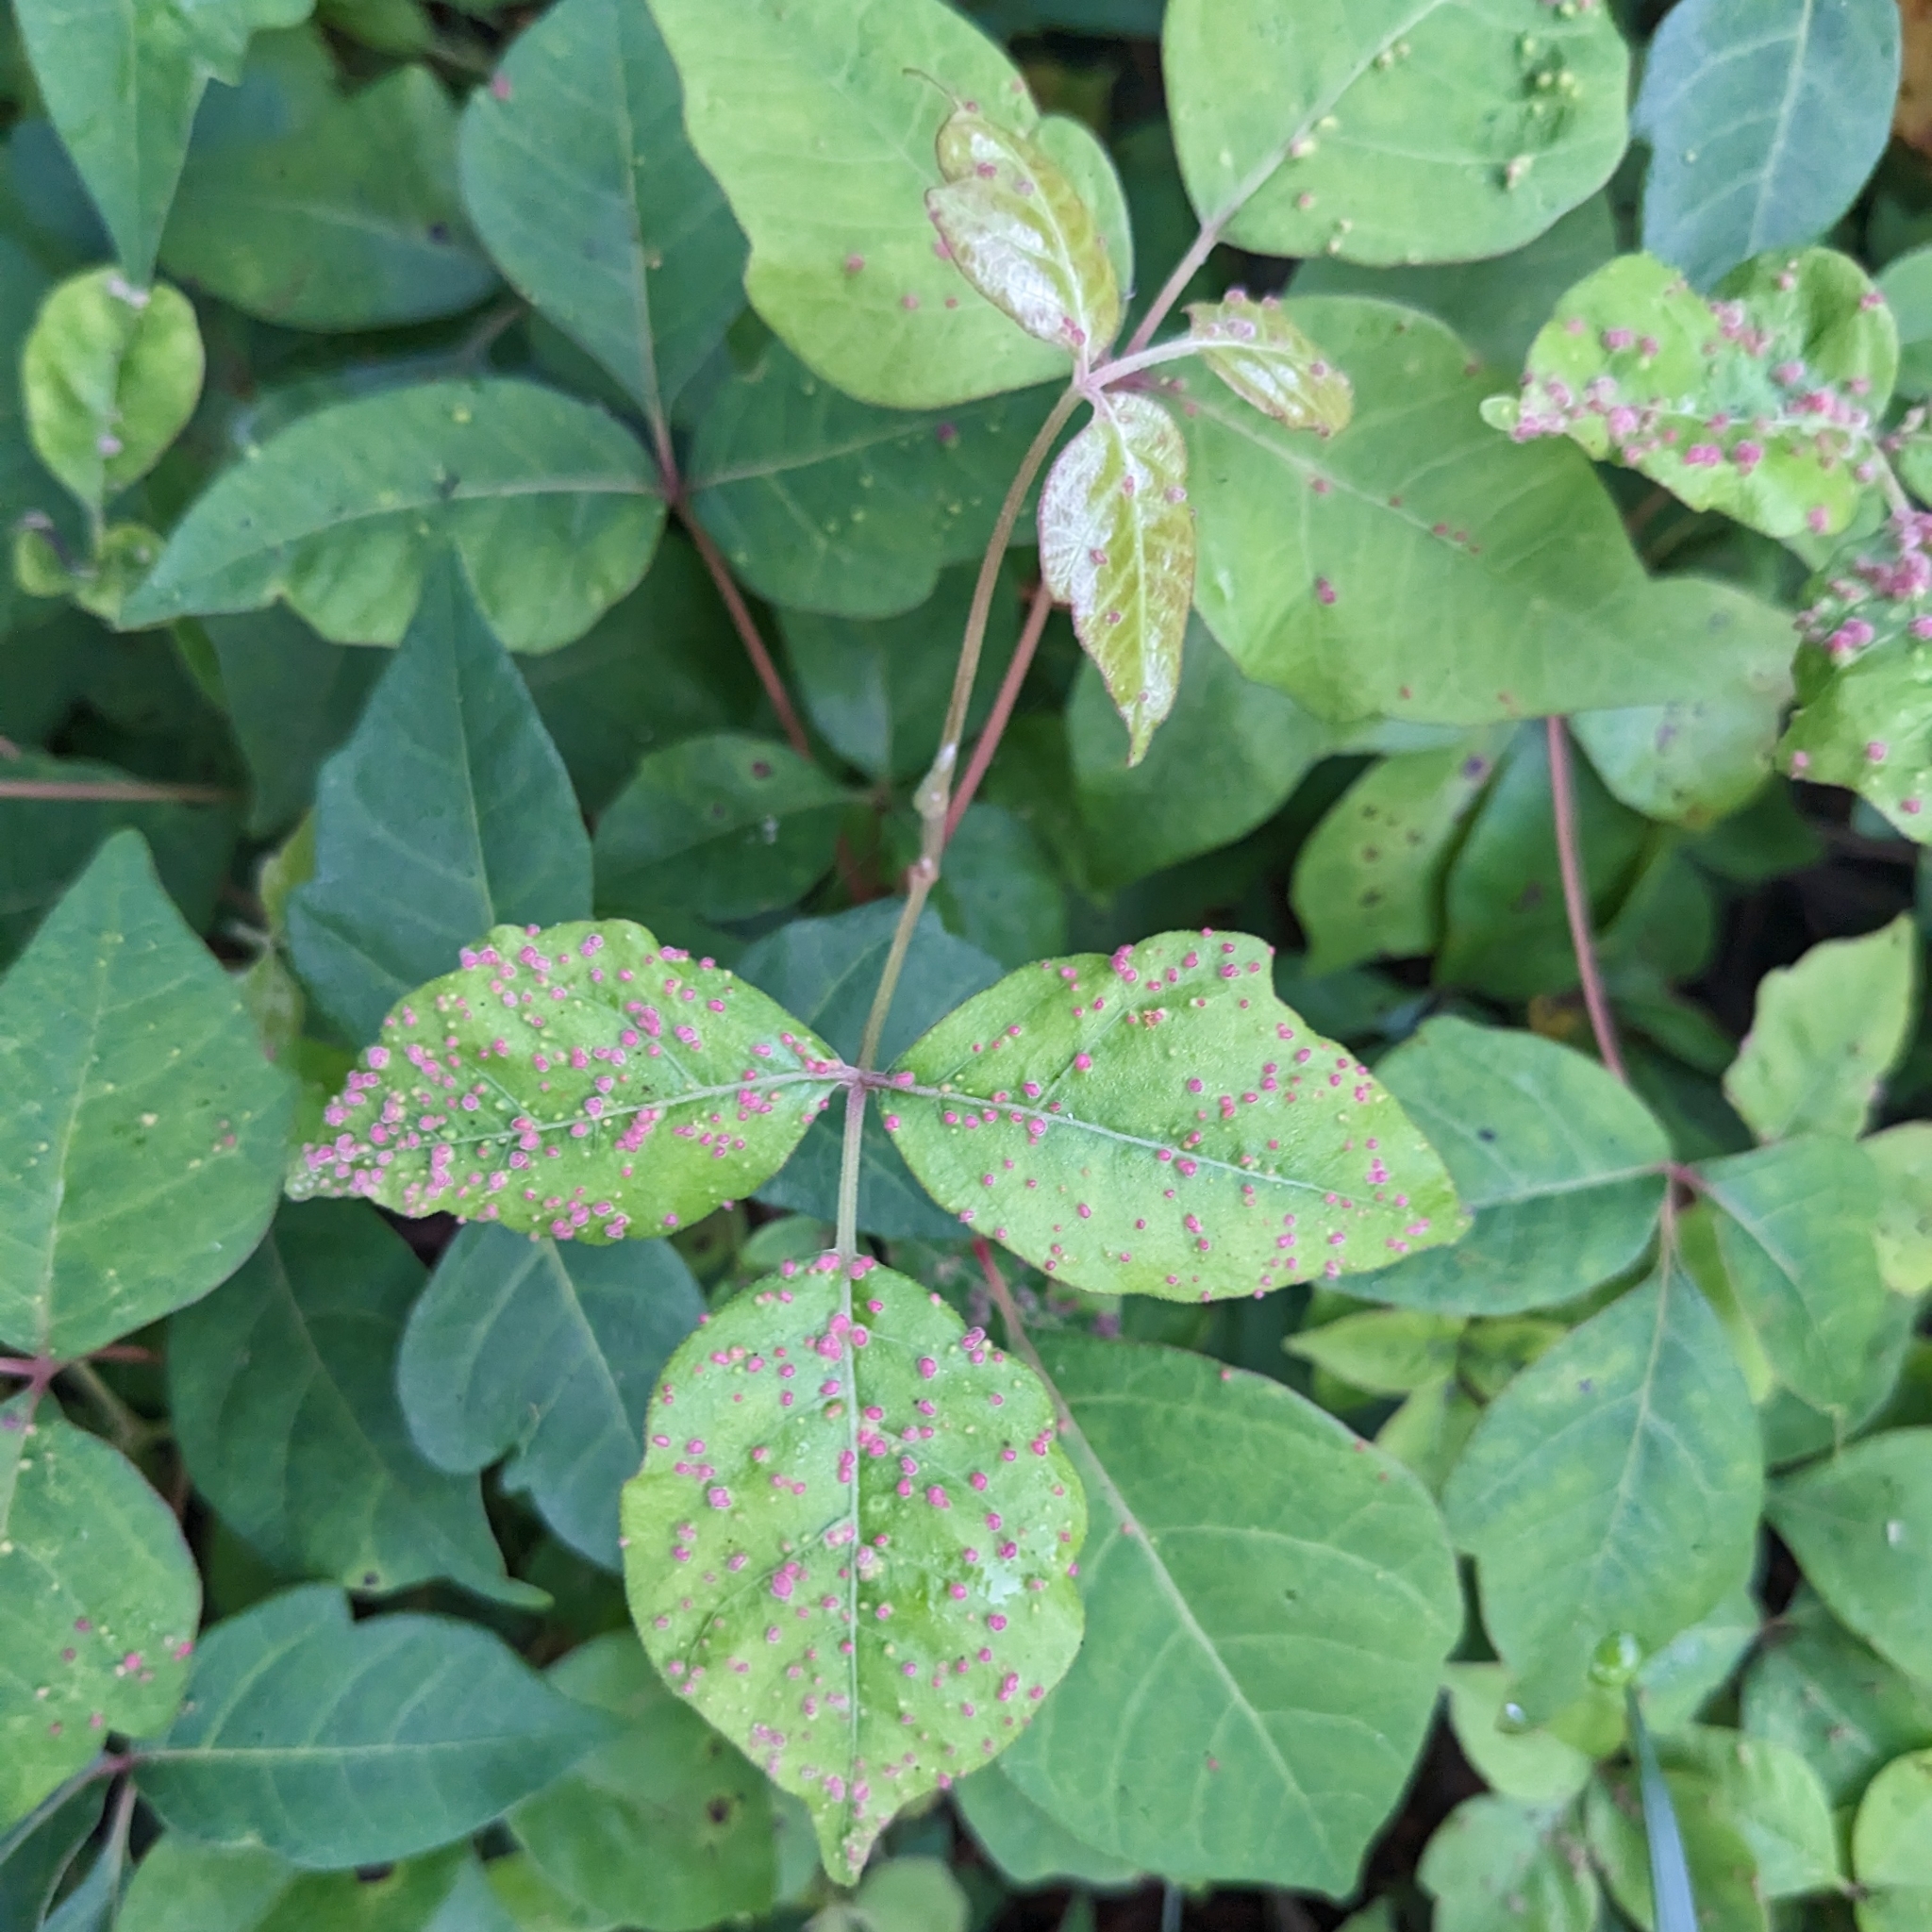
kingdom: Animalia
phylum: Arthropoda
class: Arachnida
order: Trombidiformes
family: Eriophyidae
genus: Aculops
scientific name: Aculops
